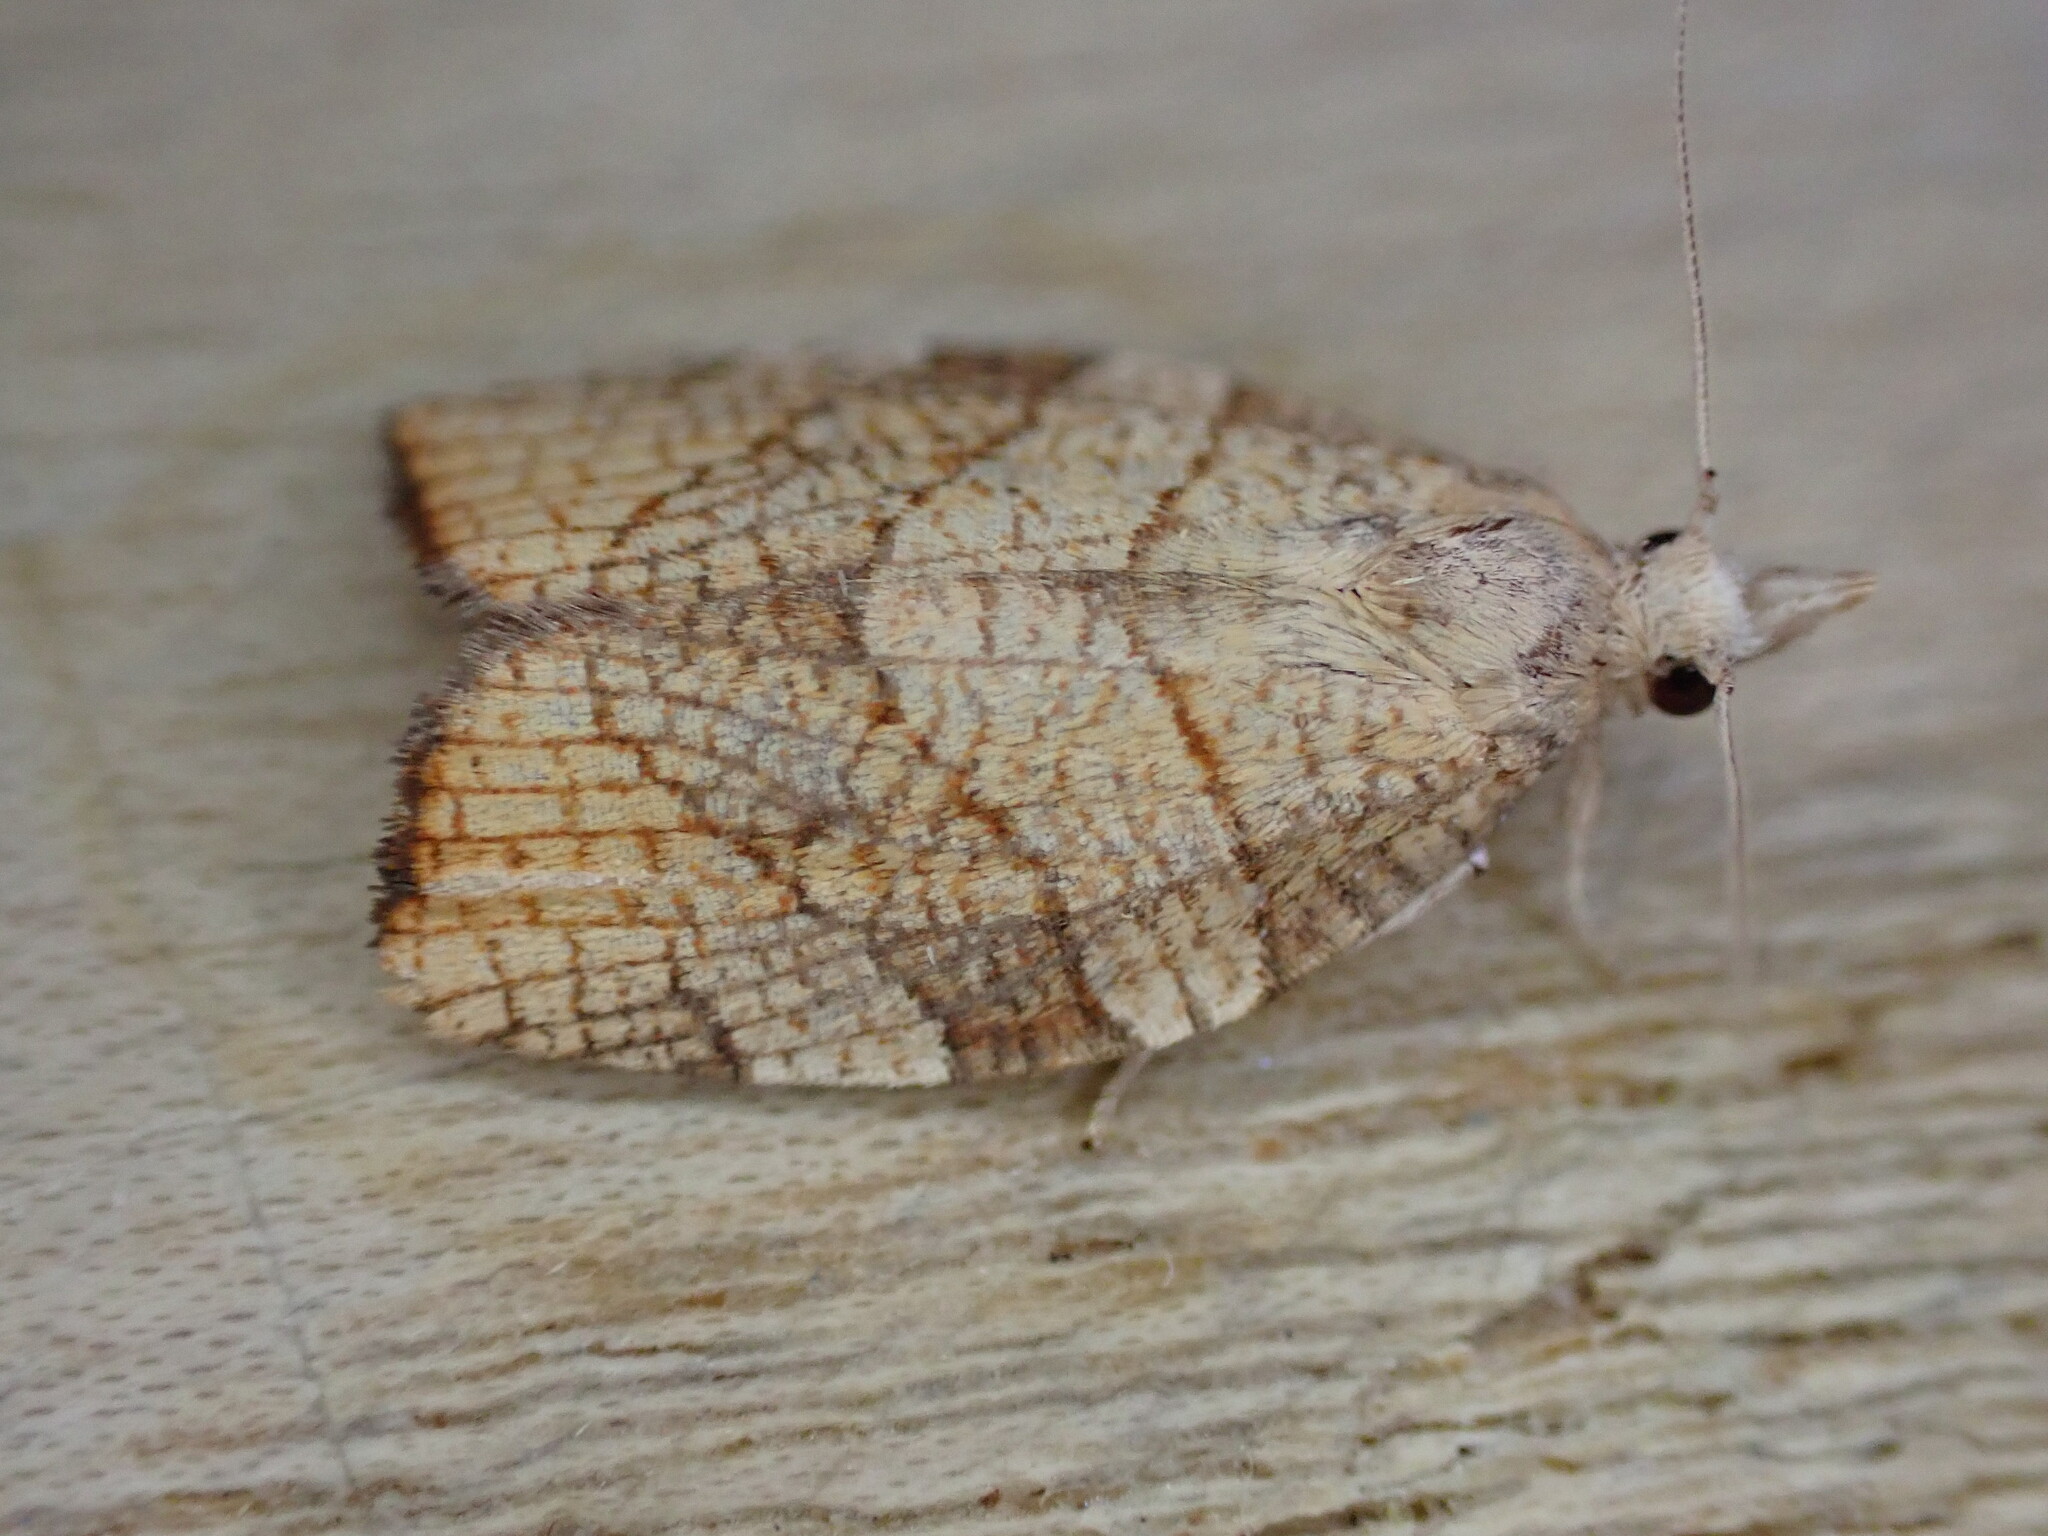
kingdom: Animalia
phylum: Arthropoda
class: Insecta
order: Lepidoptera
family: Tortricidae
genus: Pandemis
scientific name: Pandemis corylana
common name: Chequered fruit-tree tortrix
